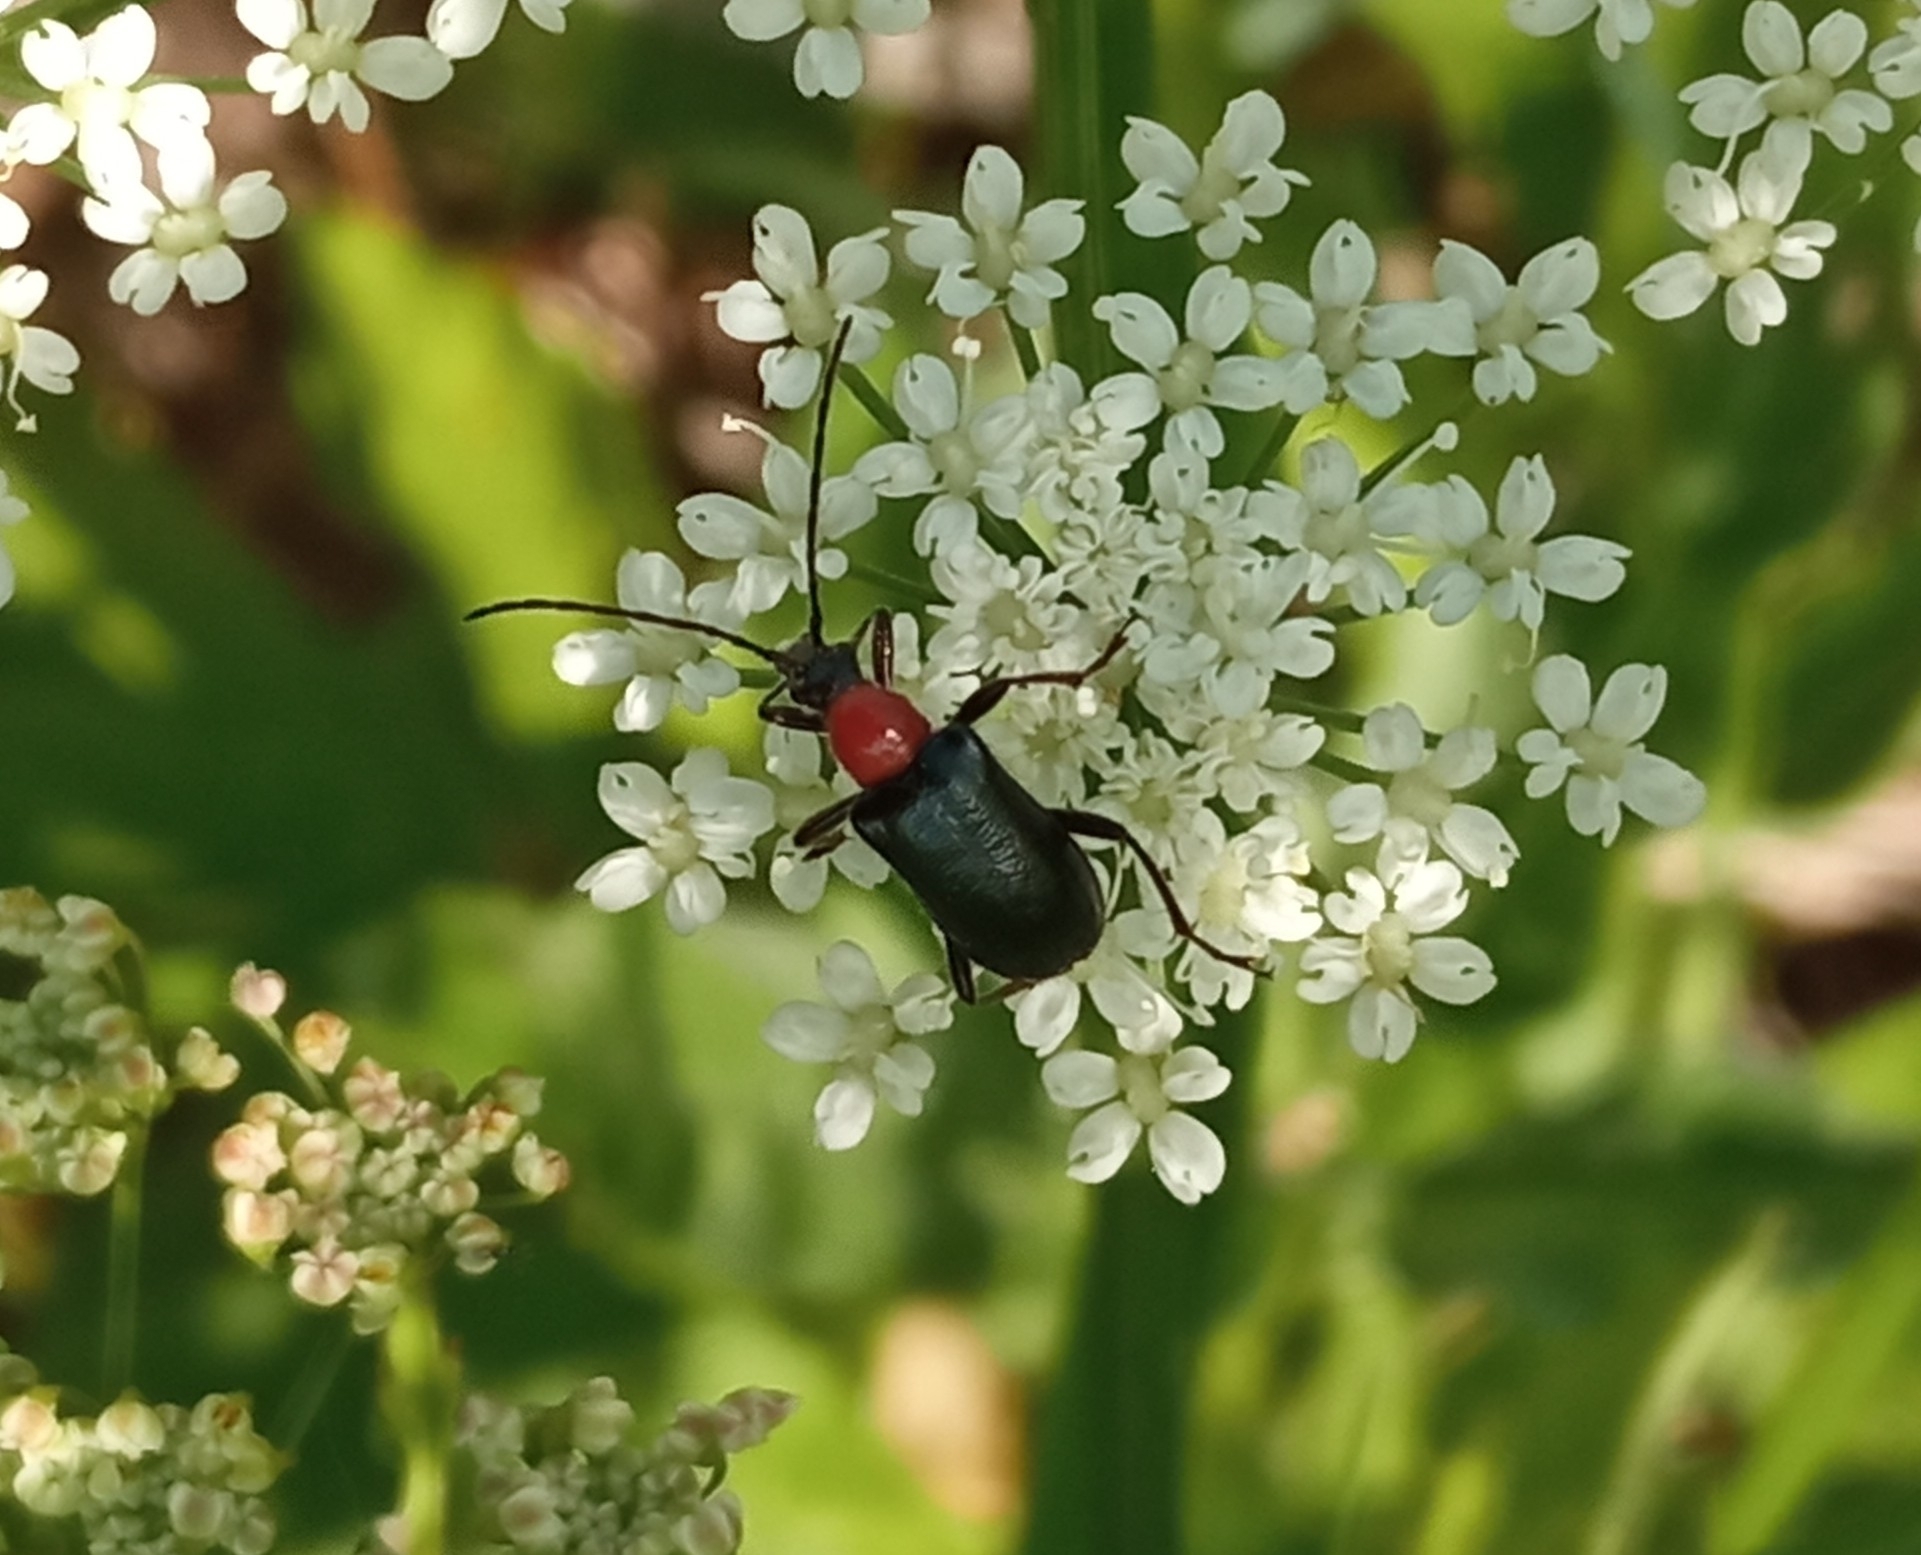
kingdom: Animalia
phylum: Arthropoda
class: Insecta
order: Coleoptera
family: Cerambycidae
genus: Dinoptera
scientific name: Dinoptera collaris
